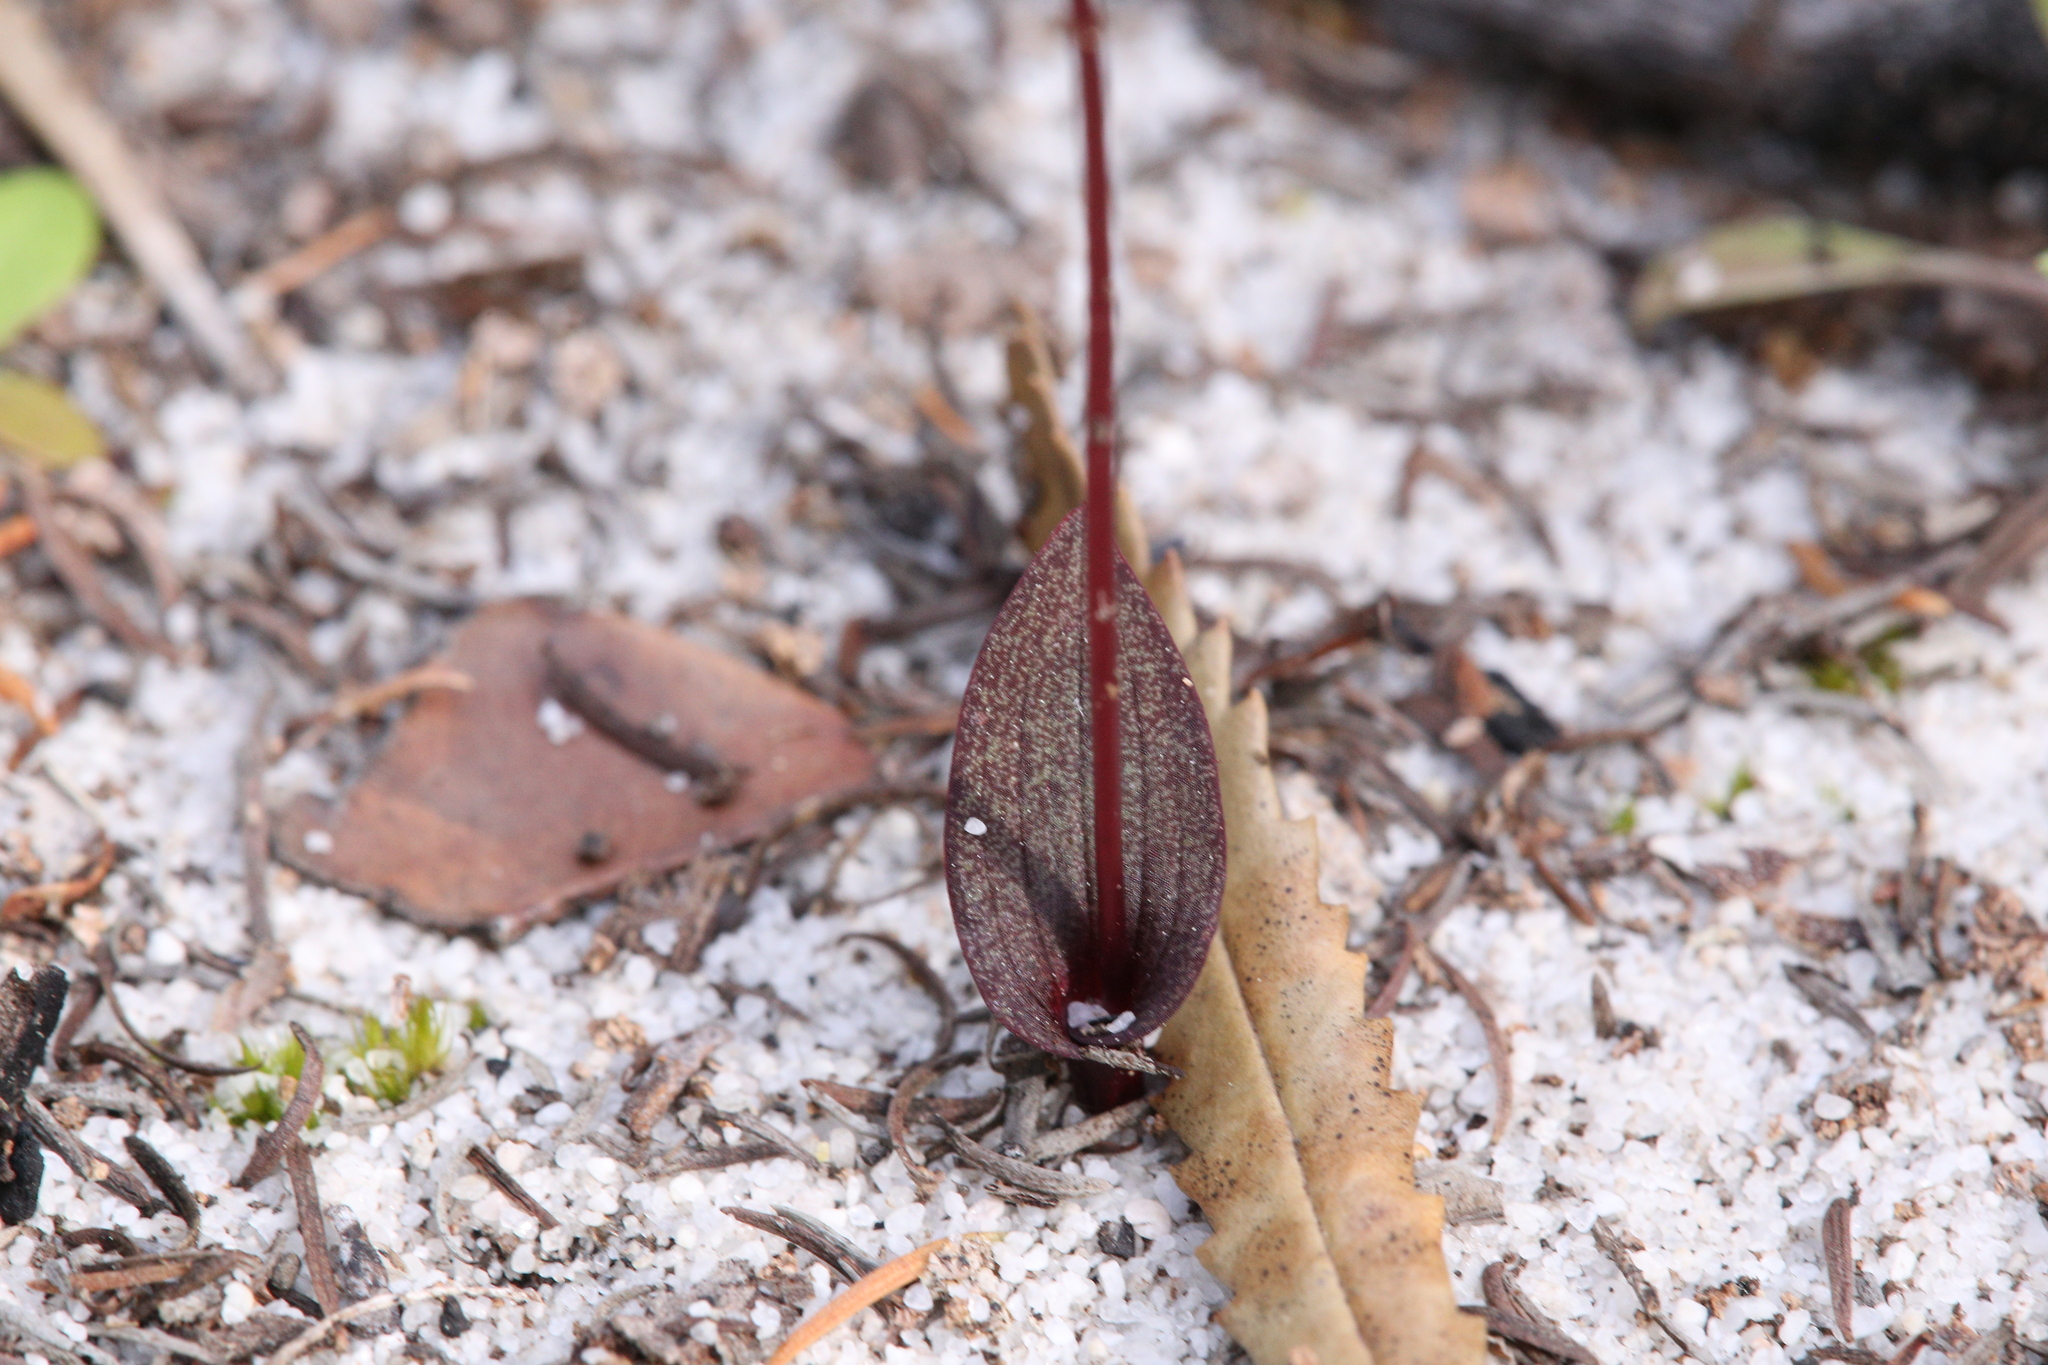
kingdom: Plantae
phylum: Tracheophyta
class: Liliopsida
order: Asparagales
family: Orchidaceae
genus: Caleana
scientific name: Caleana nigrita
